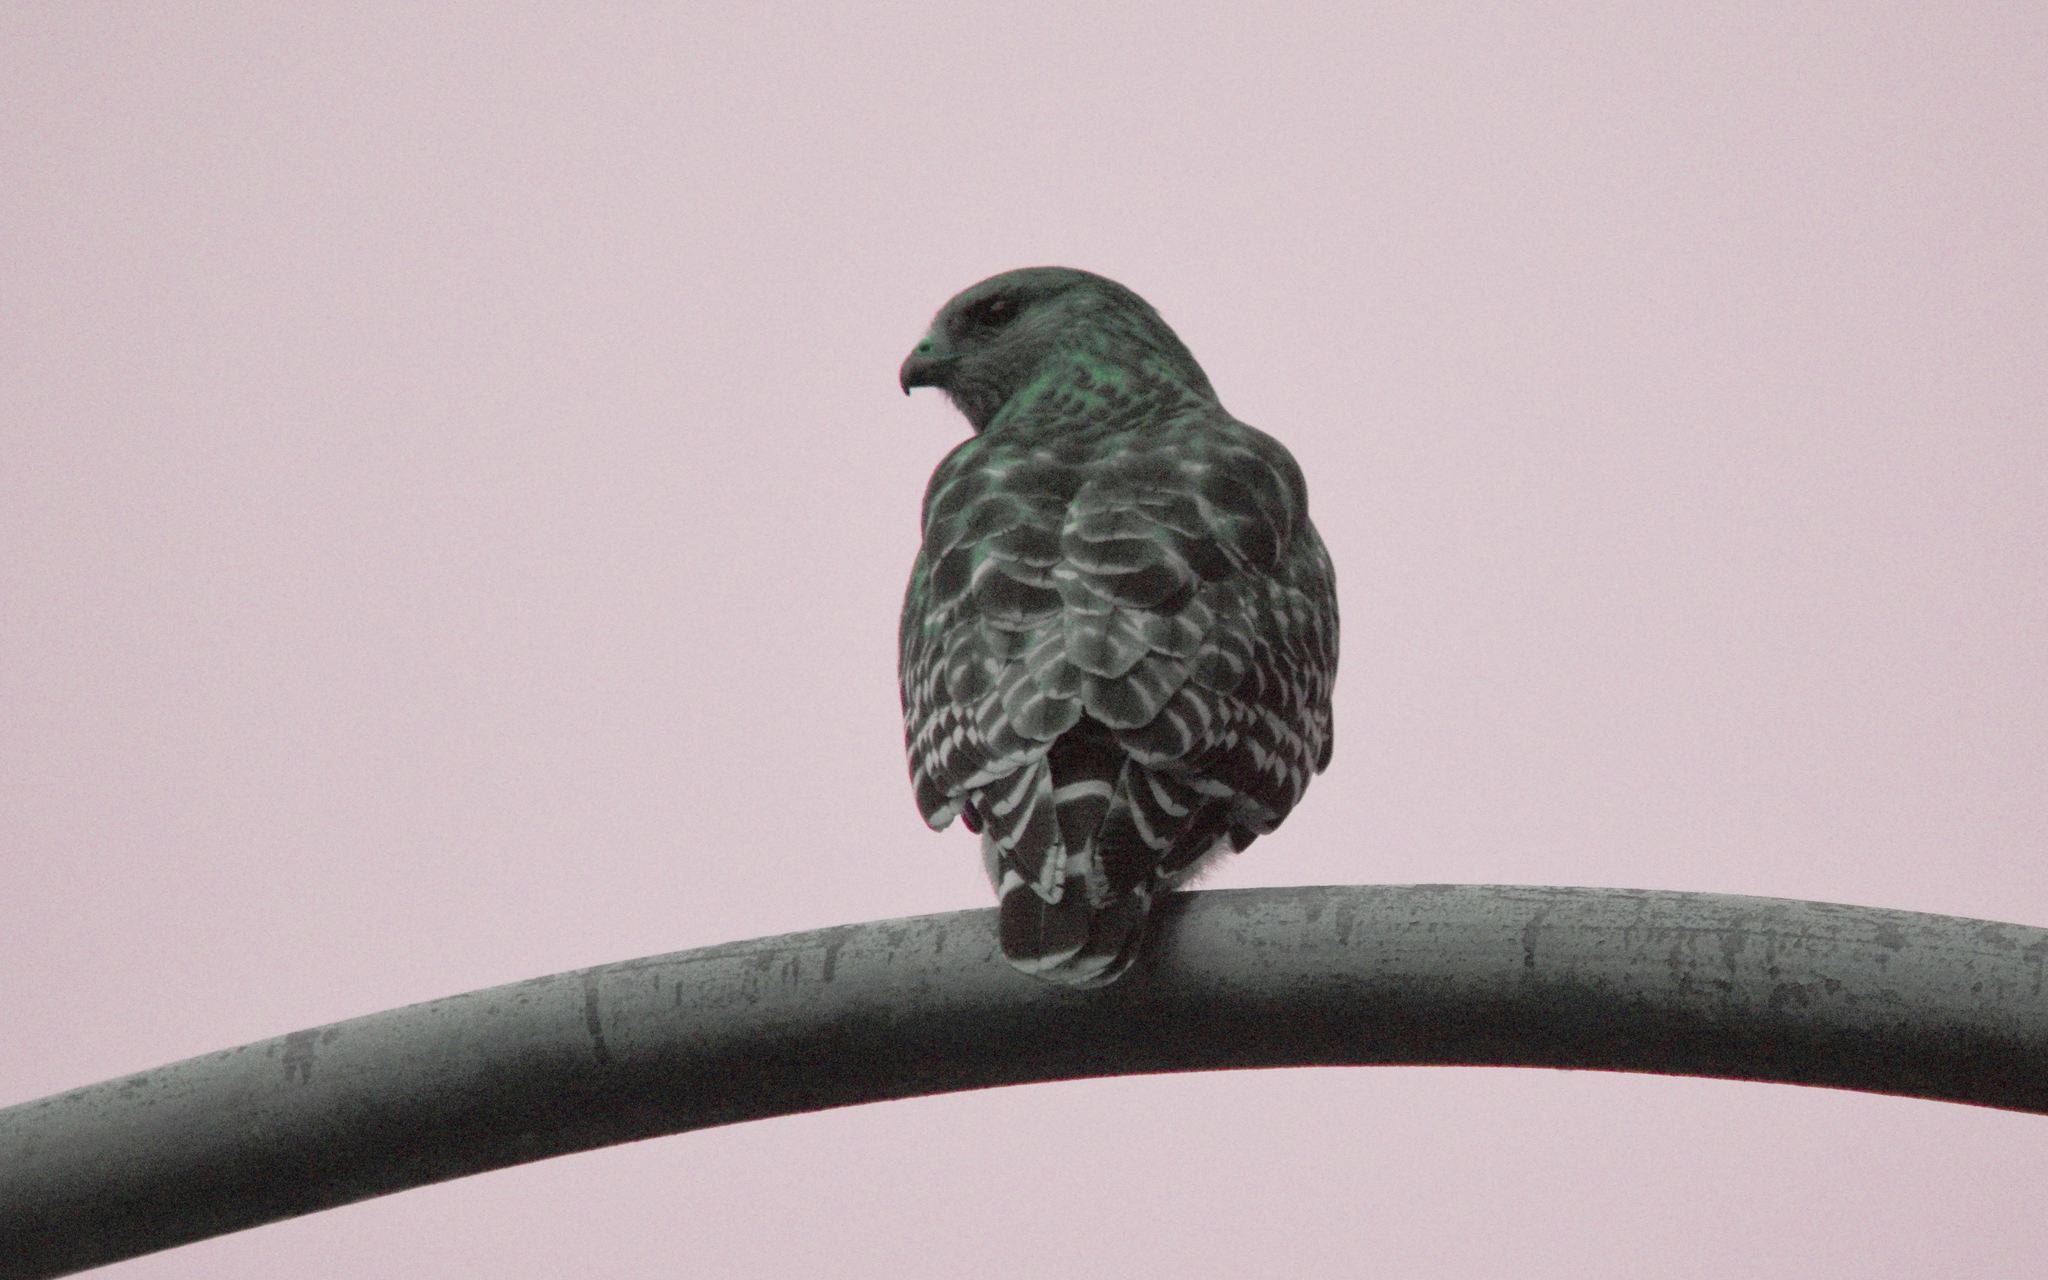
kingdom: Animalia
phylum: Chordata
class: Aves
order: Accipitriformes
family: Accipitridae
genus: Buteo
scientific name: Buteo lineatus
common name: Red-shouldered hawk
